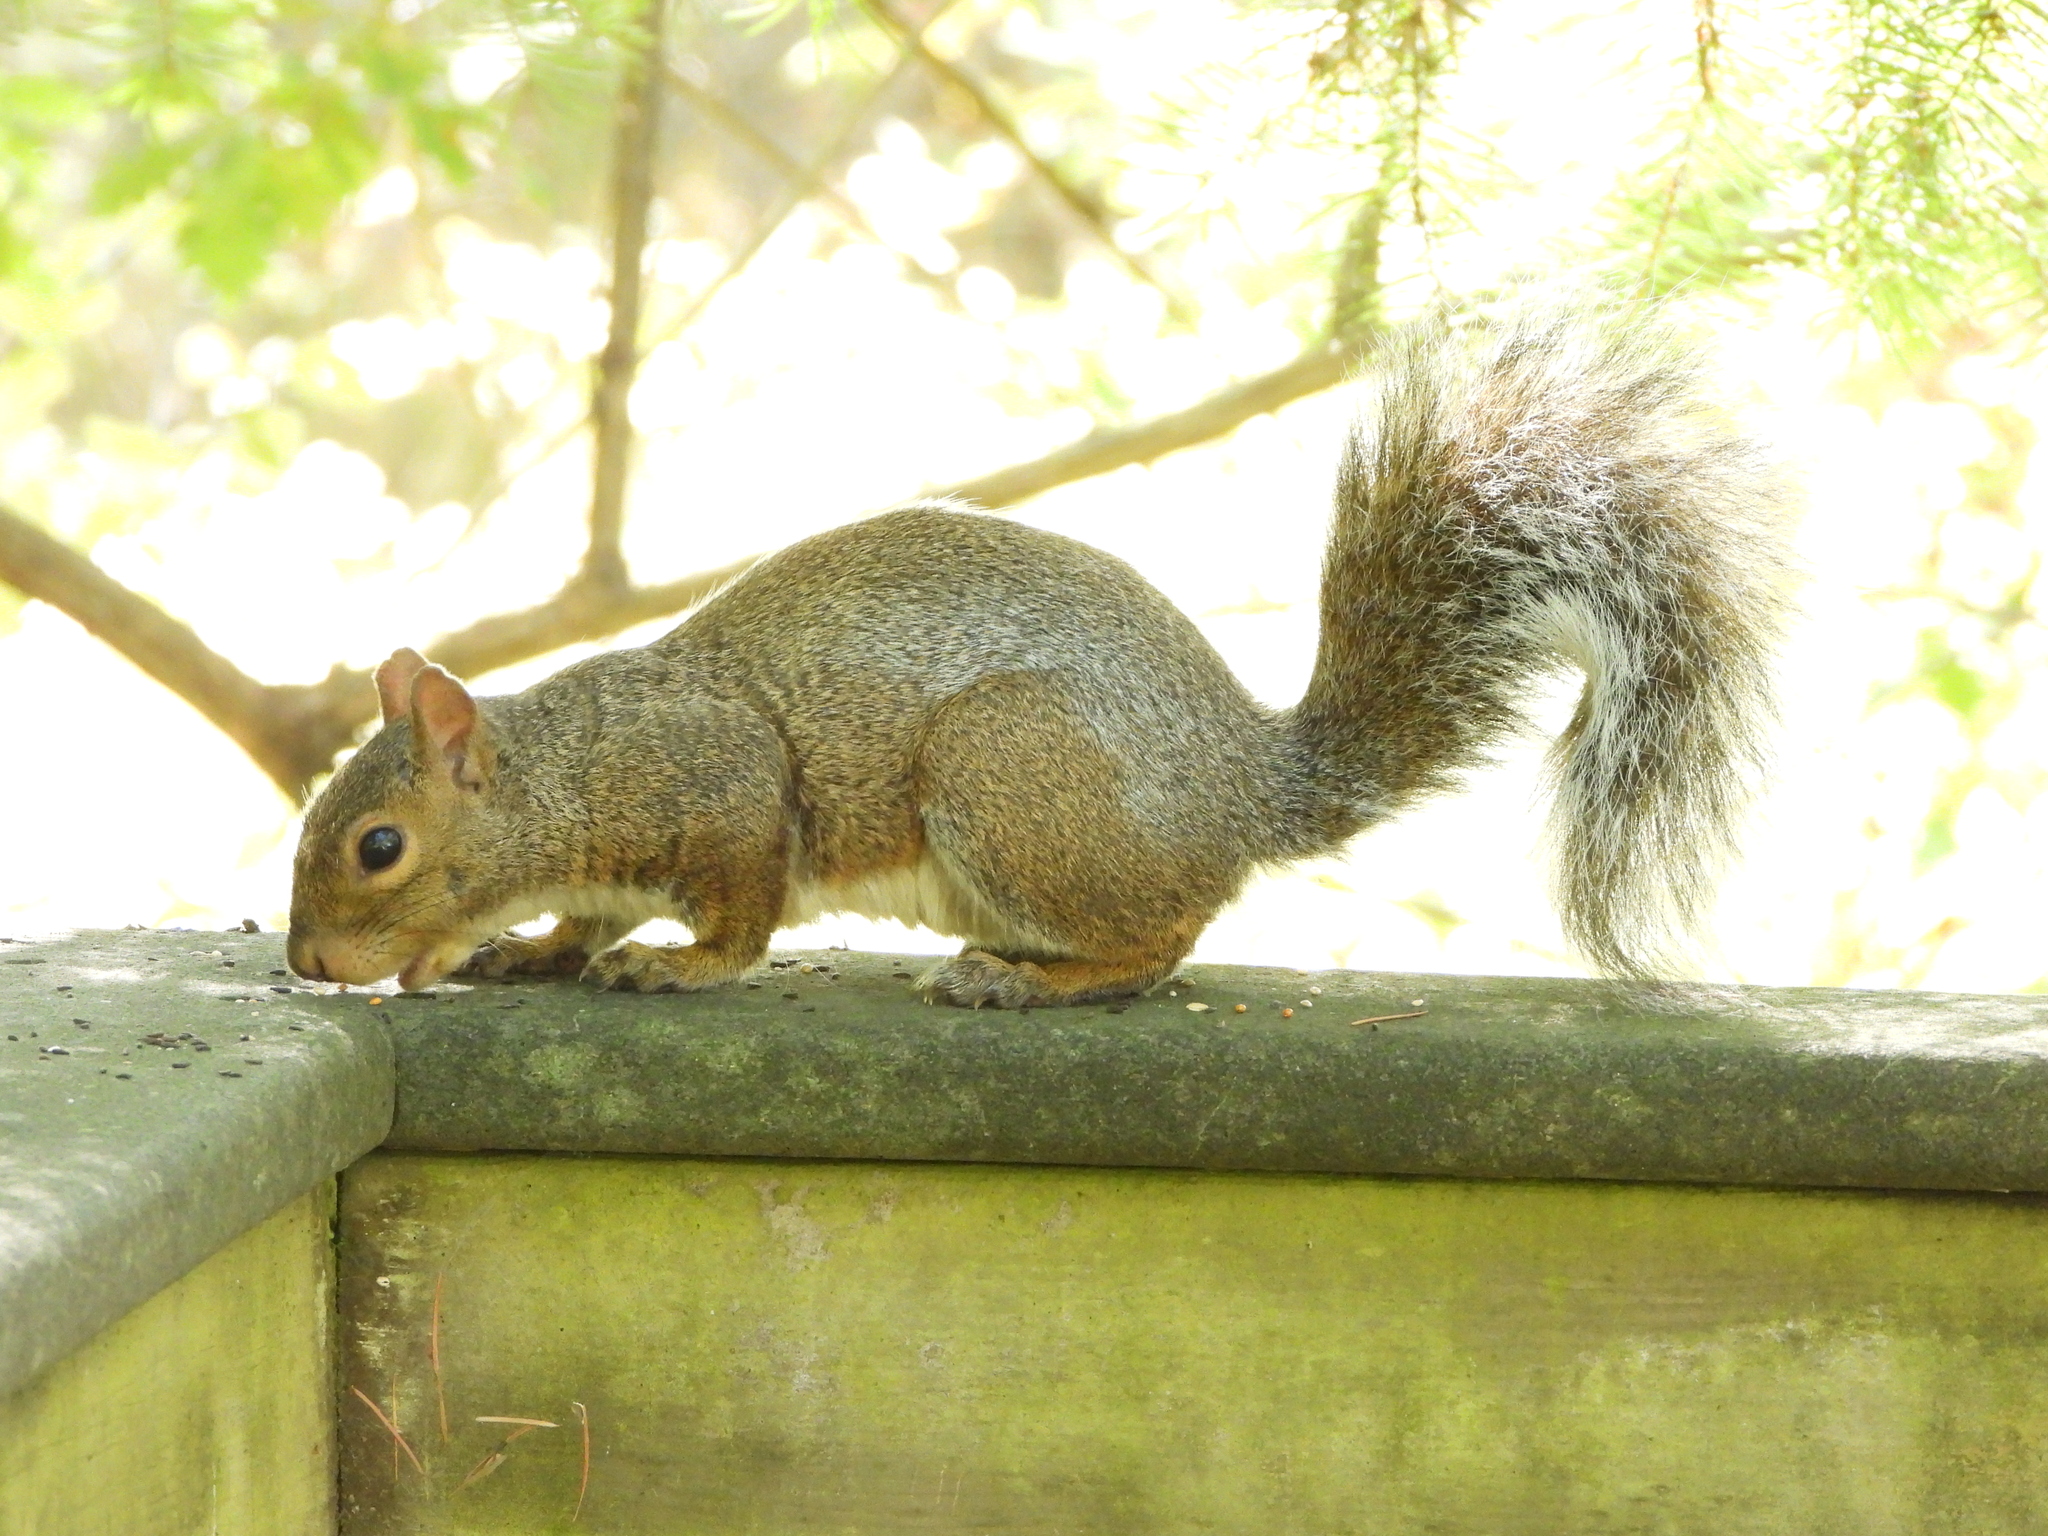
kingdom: Animalia
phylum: Chordata
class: Mammalia
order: Rodentia
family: Sciuridae
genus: Sciurus
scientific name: Sciurus carolinensis
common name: Eastern gray squirrel
